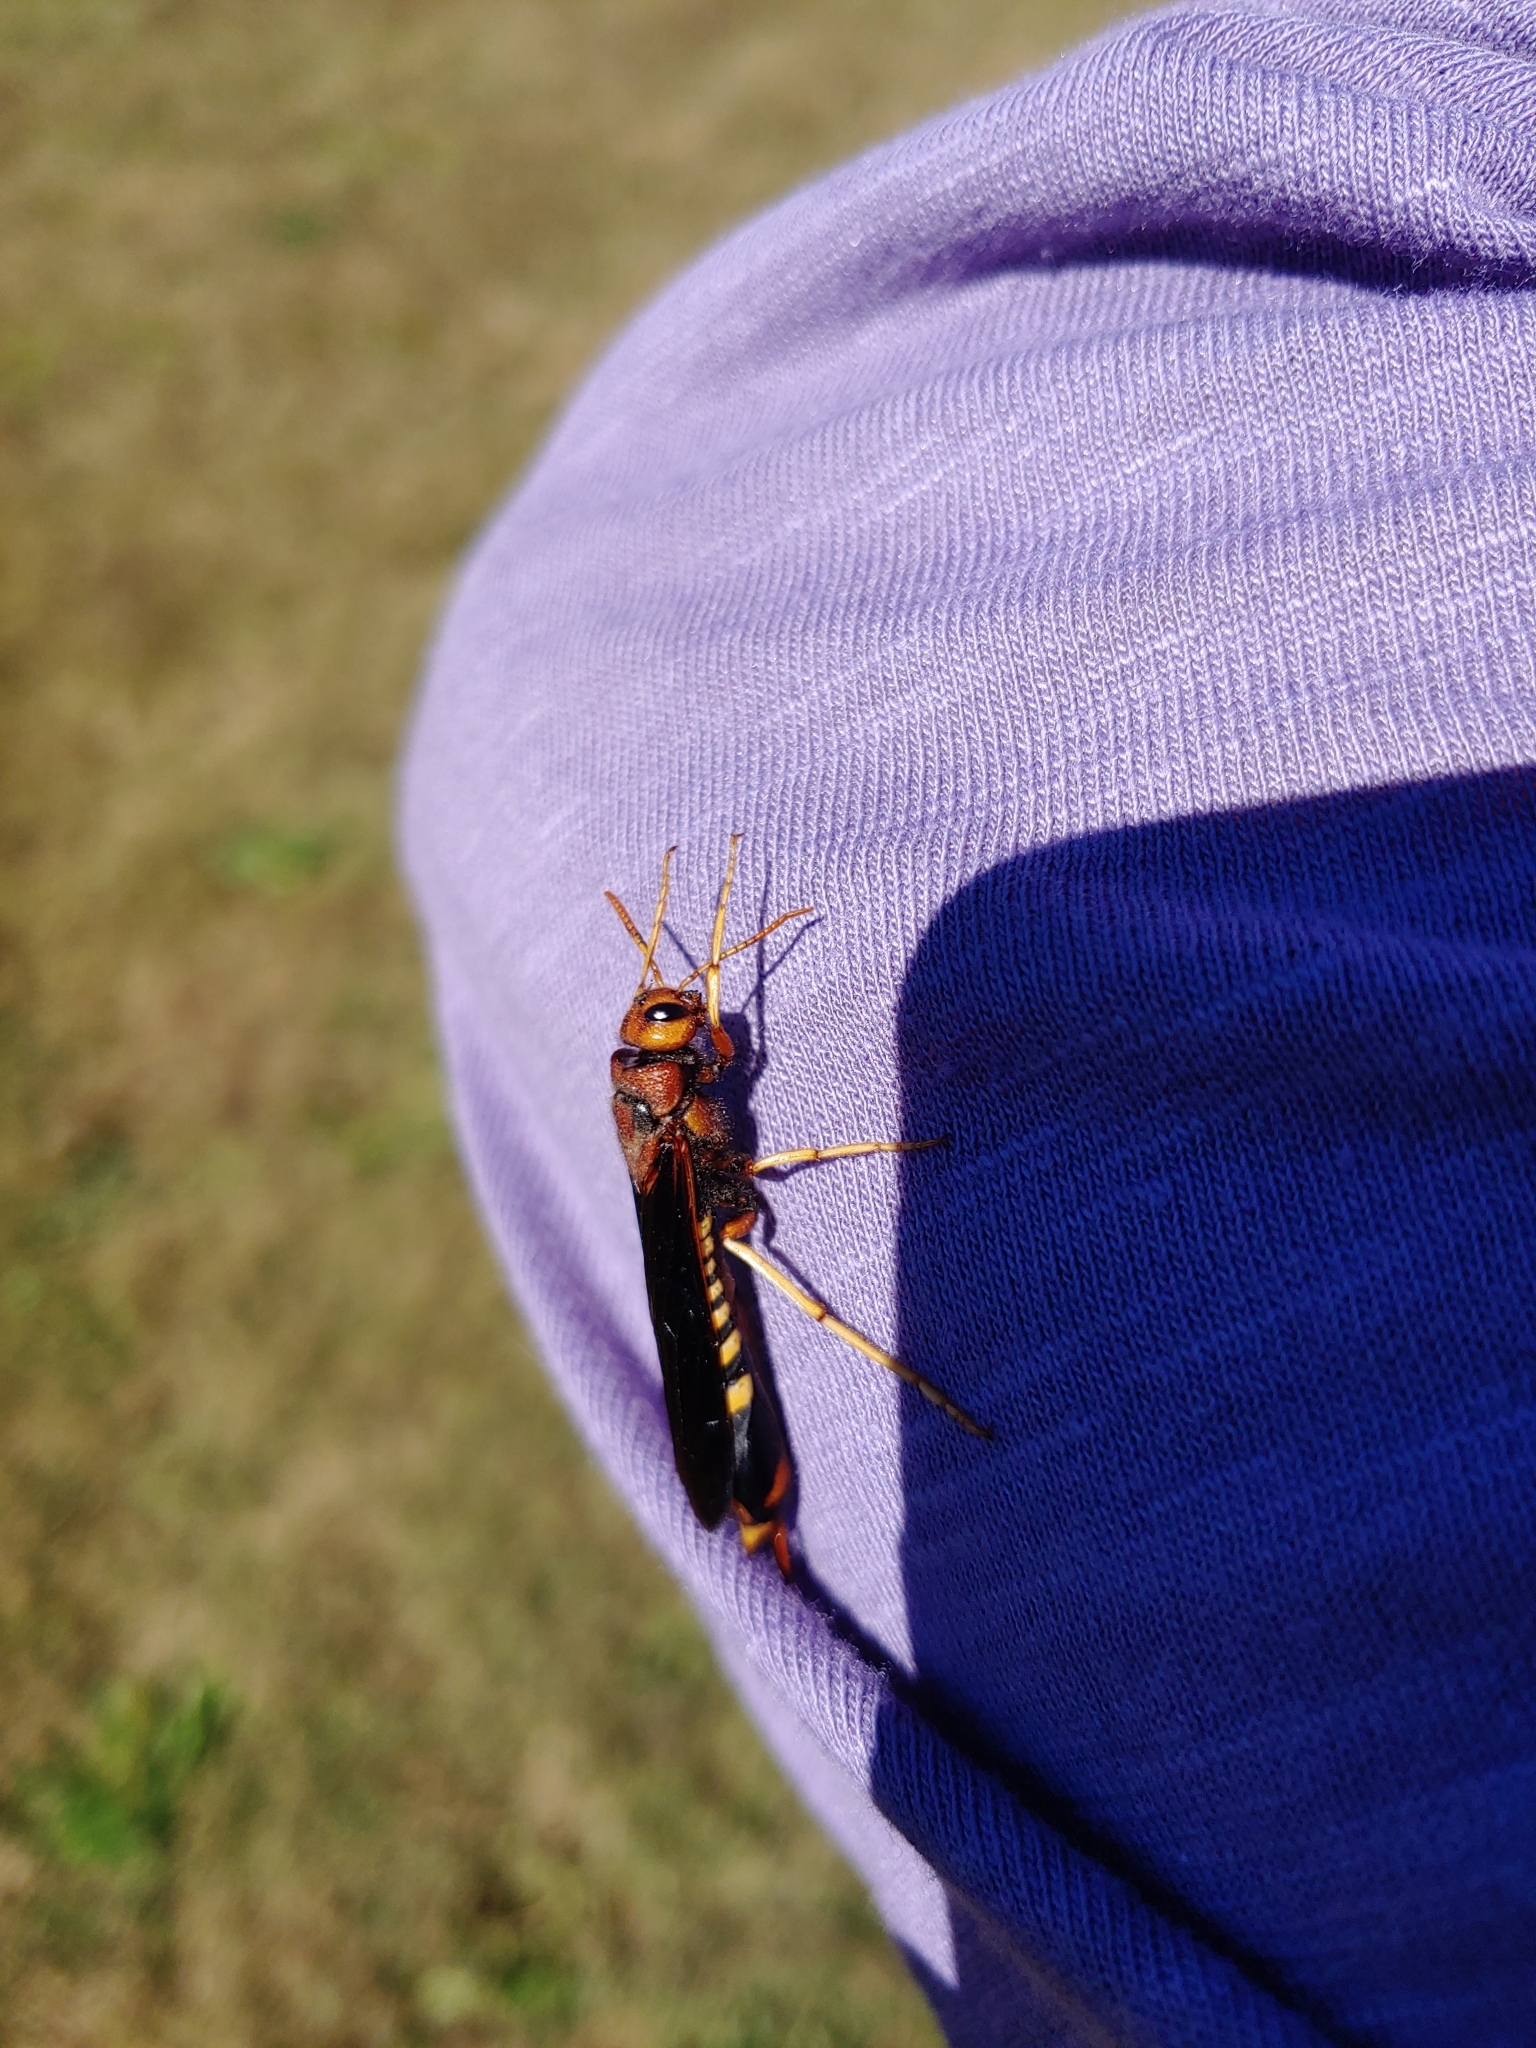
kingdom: Animalia
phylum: Arthropoda
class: Insecta
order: Hymenoptera
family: Siricidae
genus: Tremex
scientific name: Tremex columba
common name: Wasp
